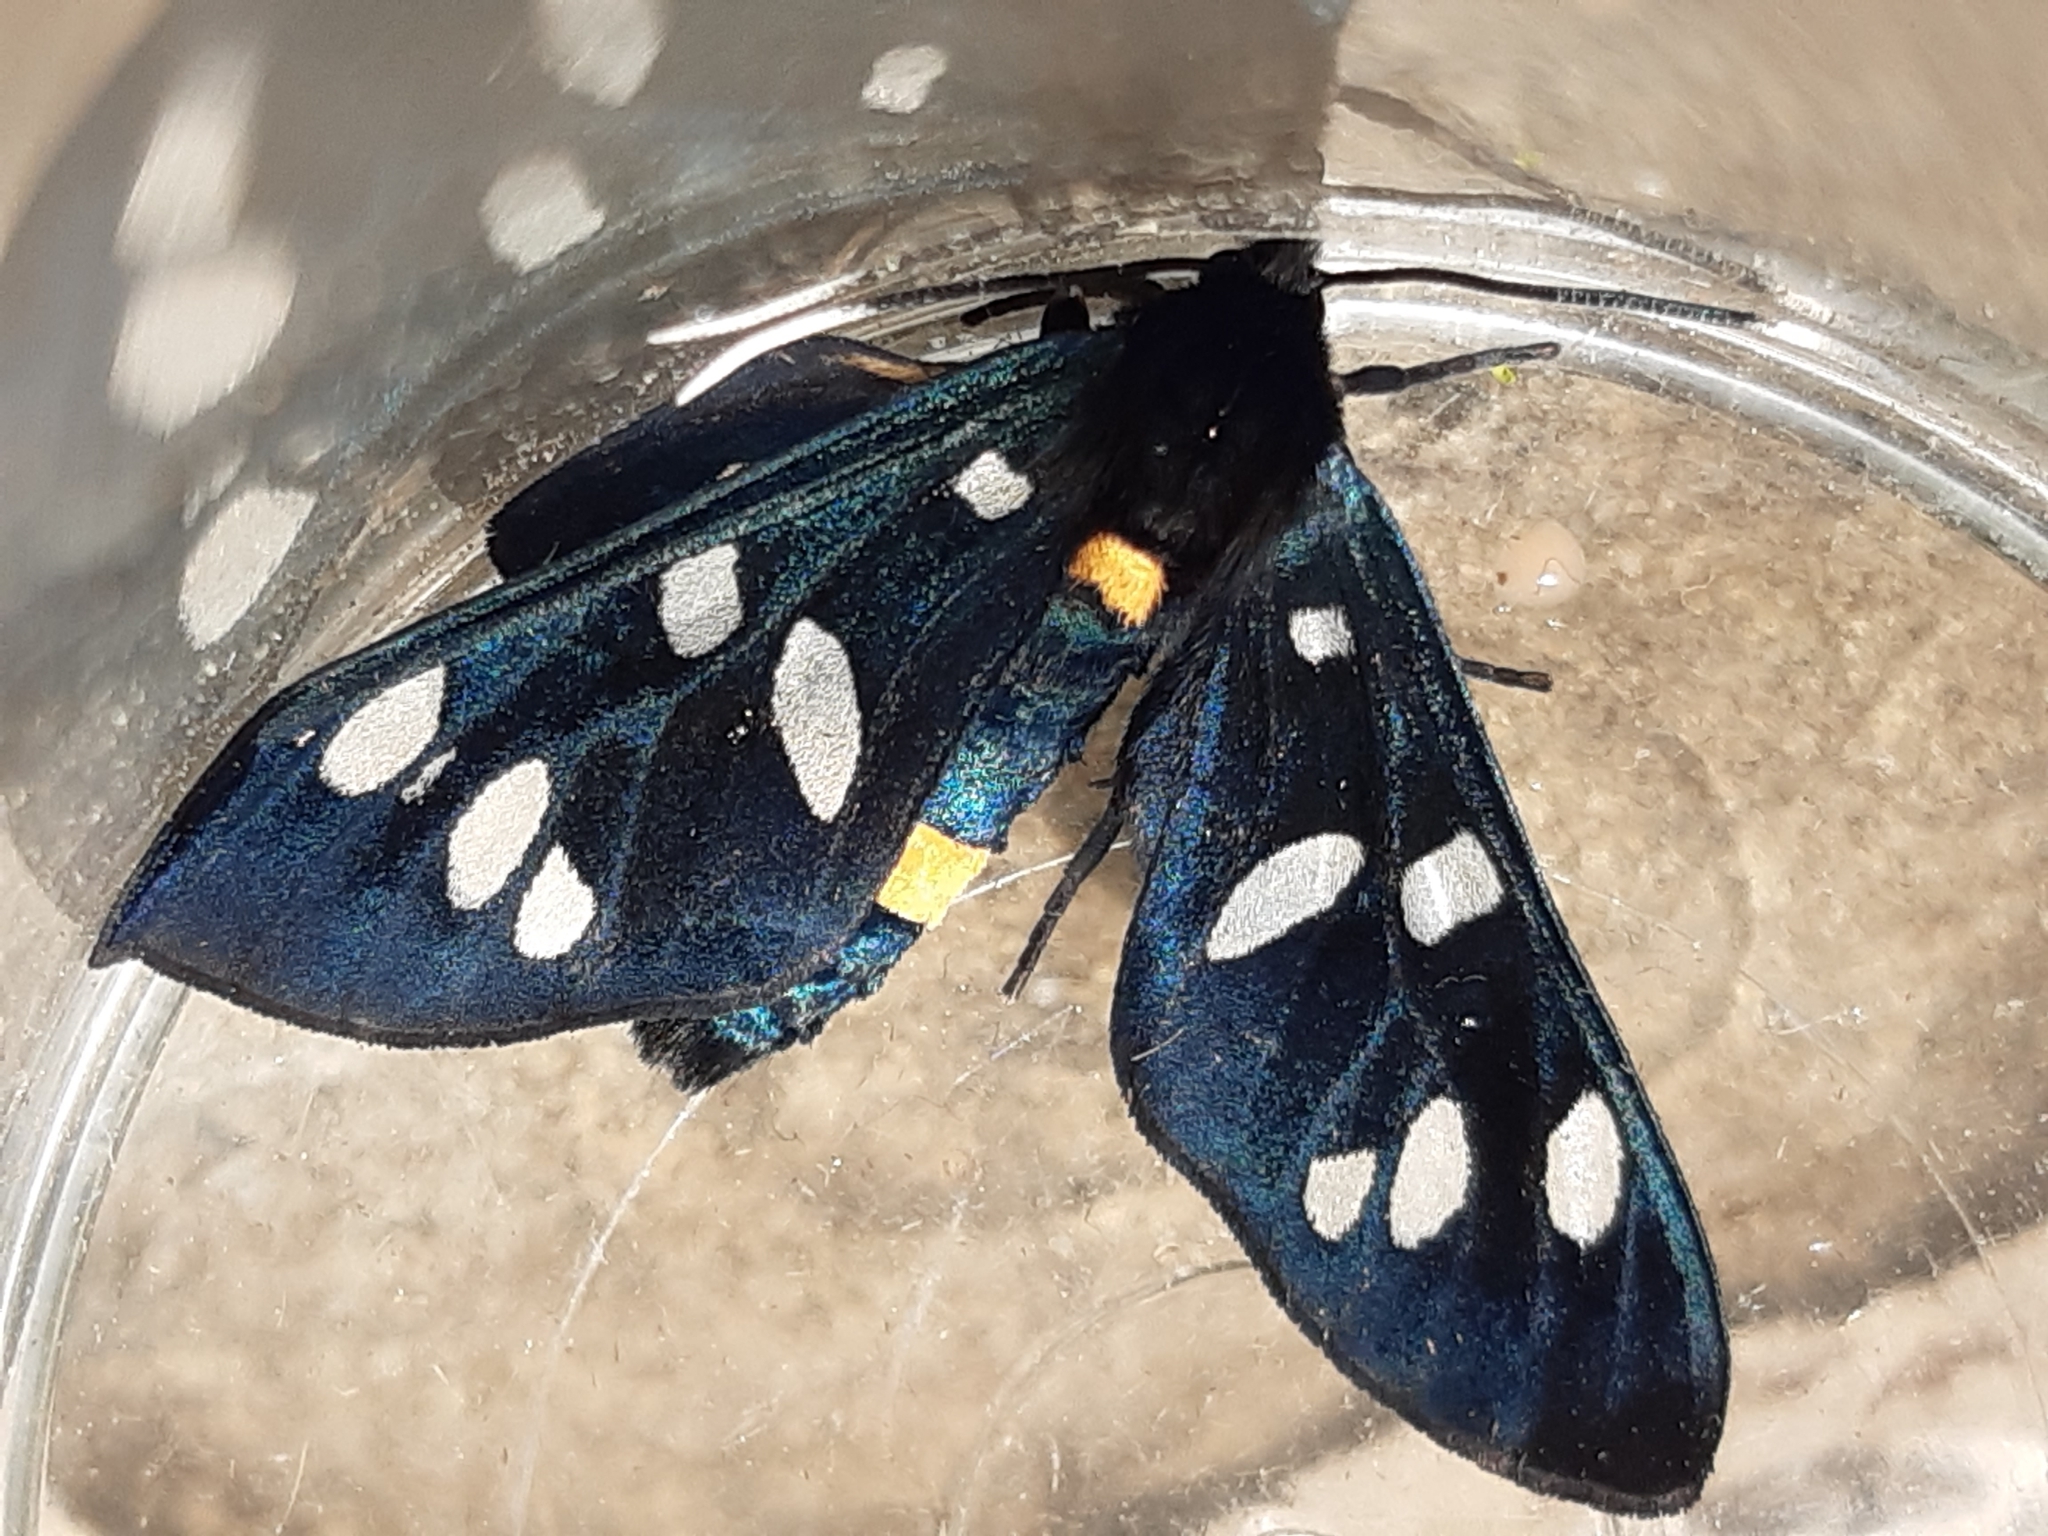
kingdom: Animalia
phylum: Arthropoda
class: Insecta
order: Lepidoptera
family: Erebidae
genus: Amata
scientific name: Amata phegea
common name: Nine-spotted
